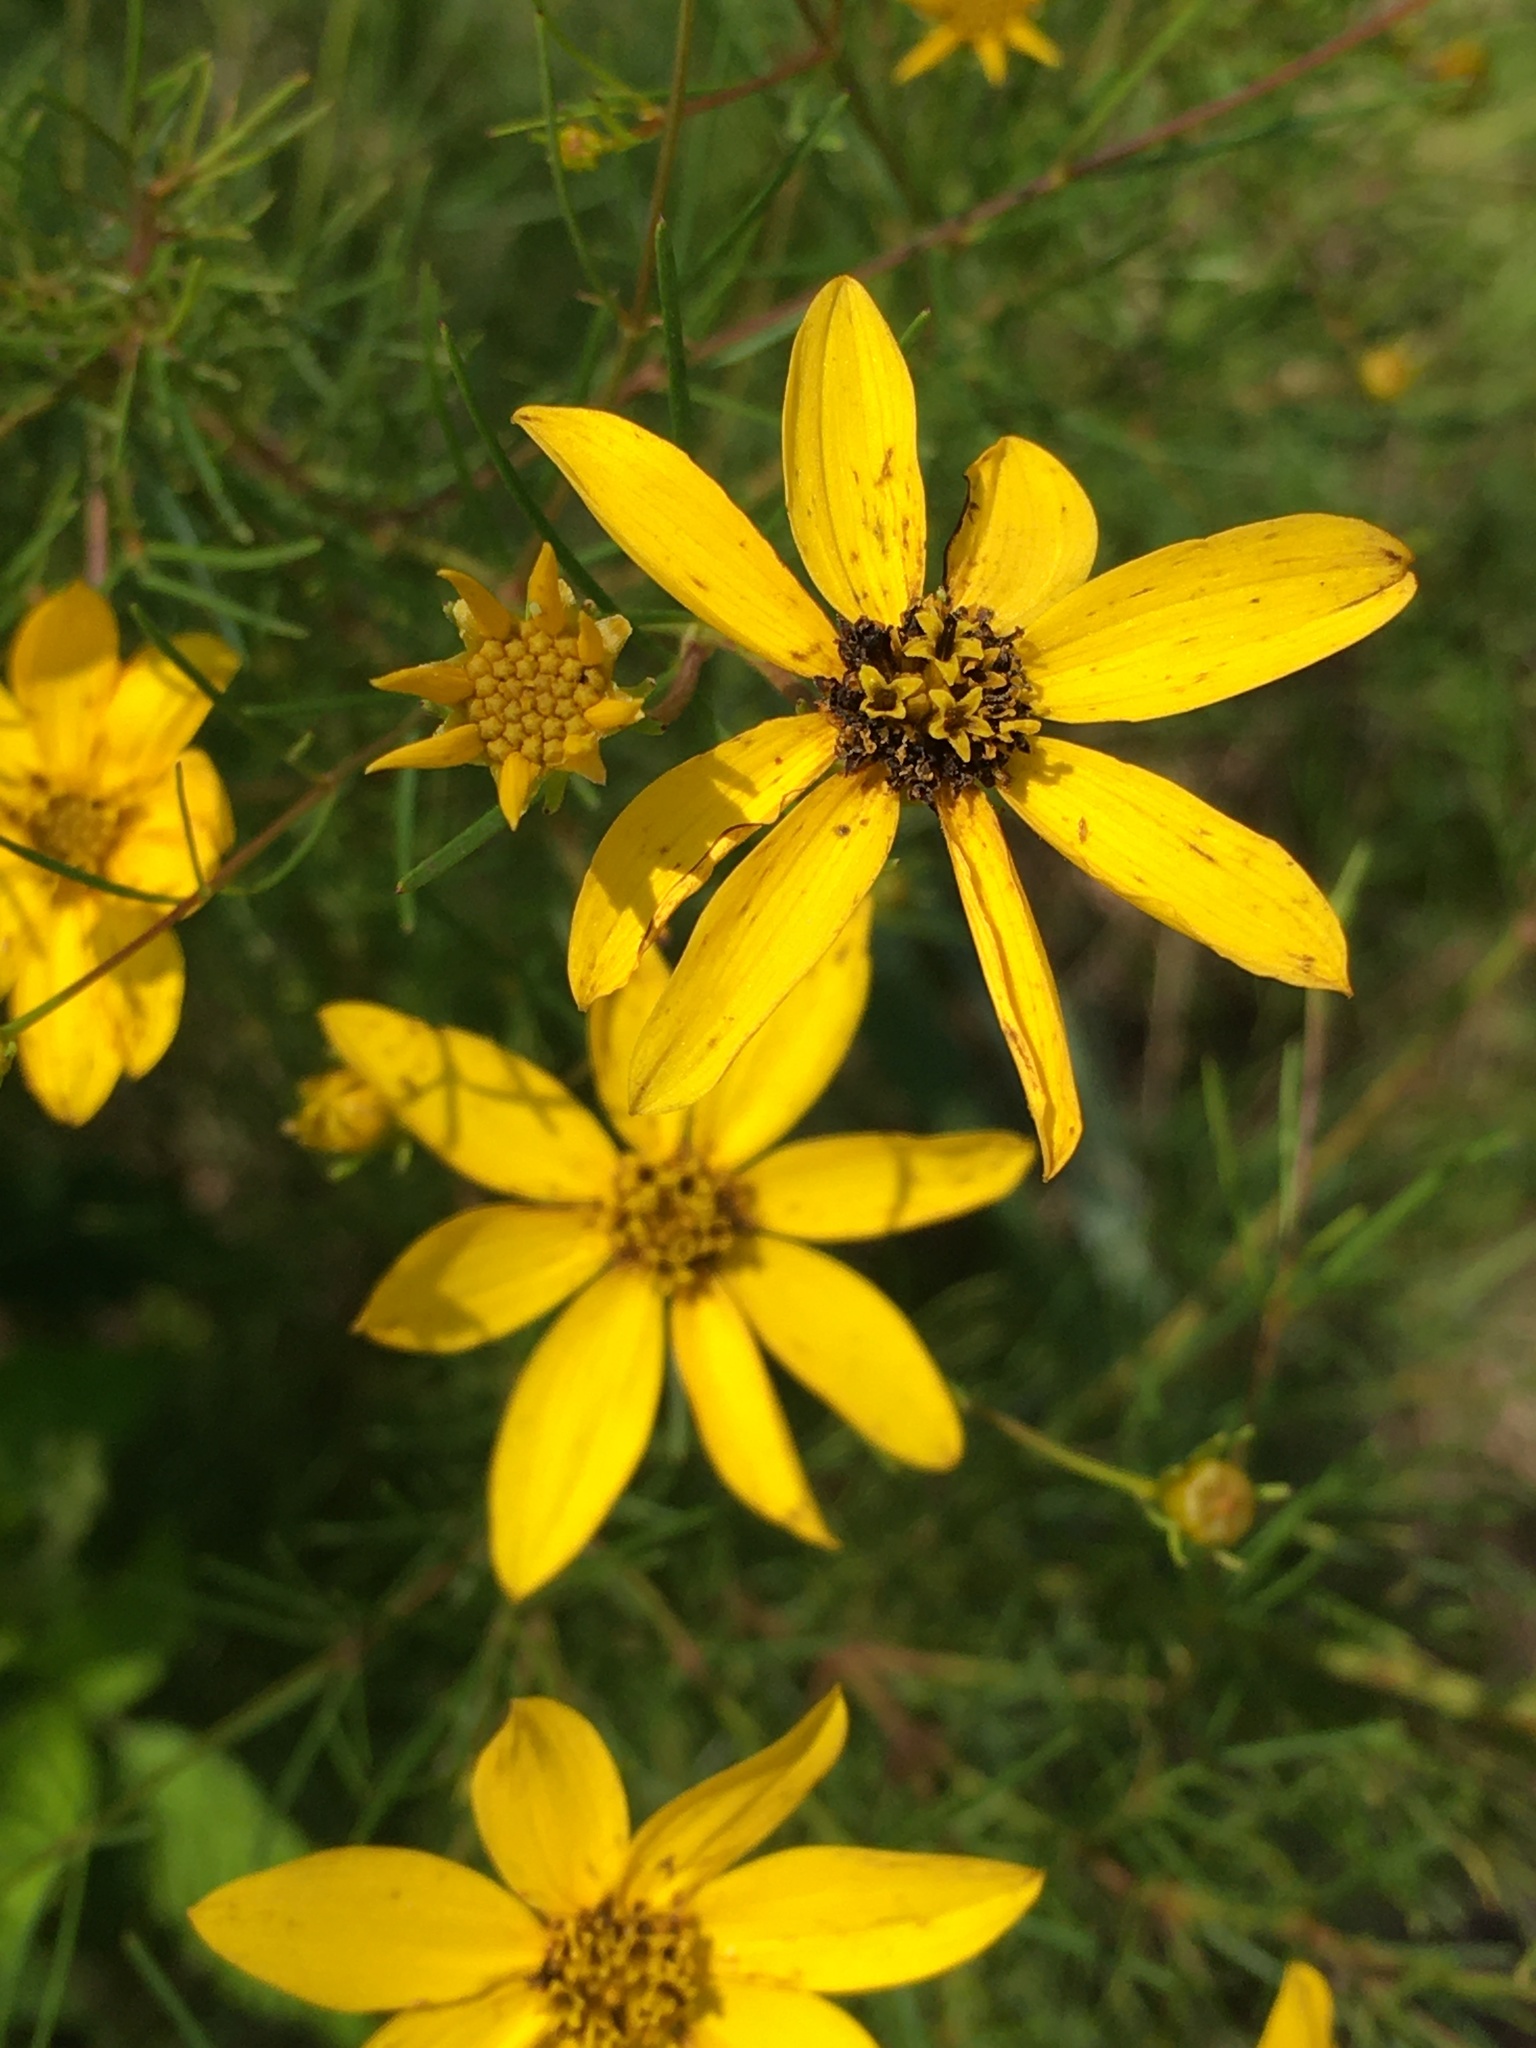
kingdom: Plantae
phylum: Tracheophyta
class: Magnoliopsida
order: Asterales
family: Asteraceae
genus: Coreopsis
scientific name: Coreopsis verticillata
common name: Whorled tickseed
